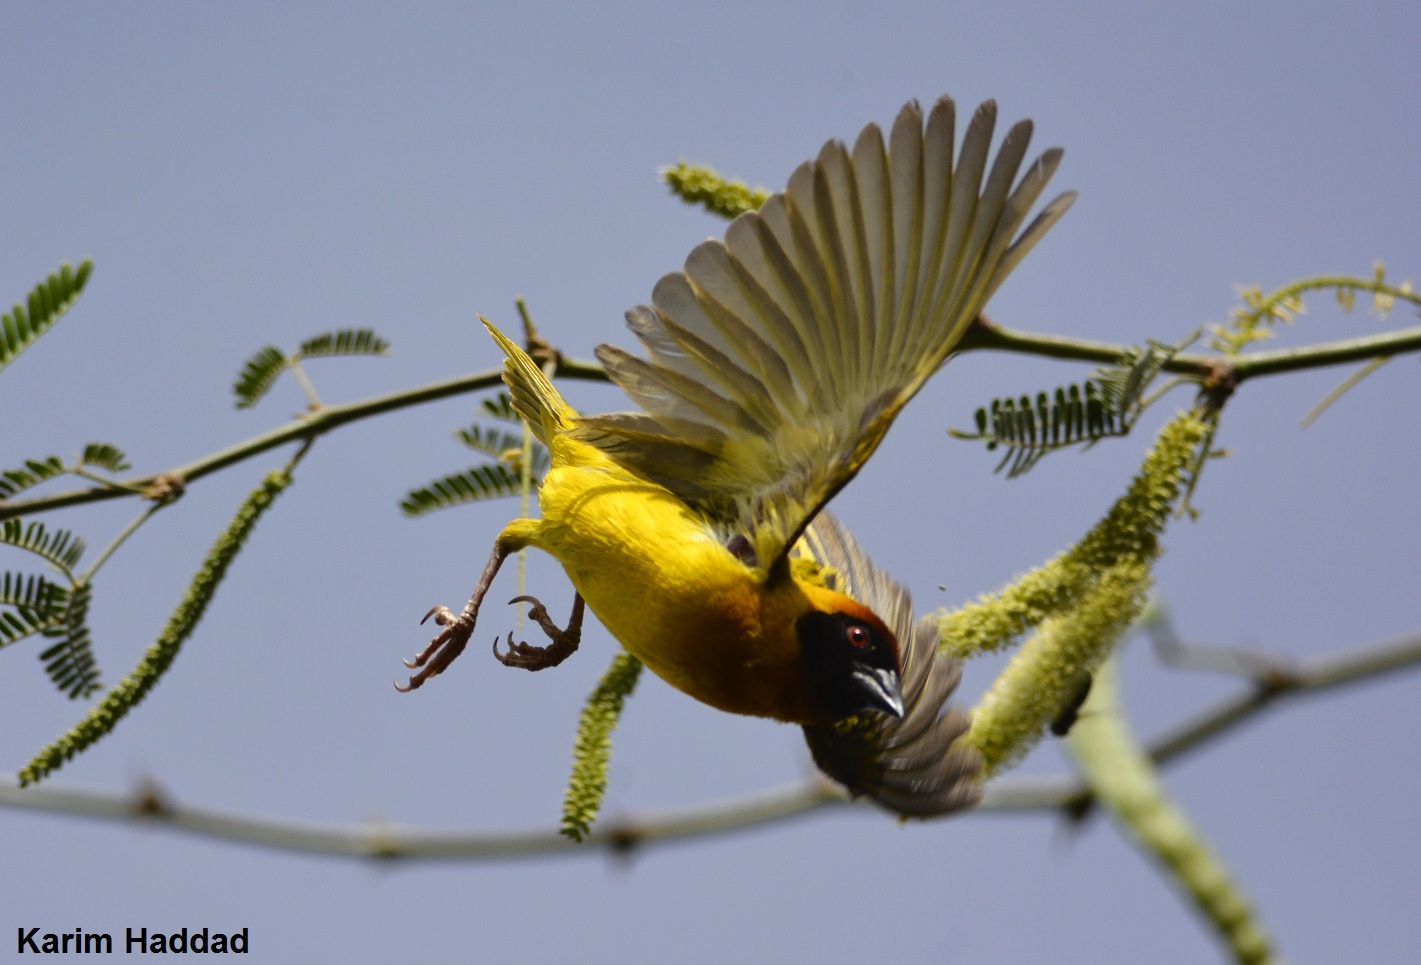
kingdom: Animalia
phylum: Chordata
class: Aves
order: Passeriformes
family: Ploceidae
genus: Ploceus
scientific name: Ploceus vitellinus
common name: Vitelline masked weaver
